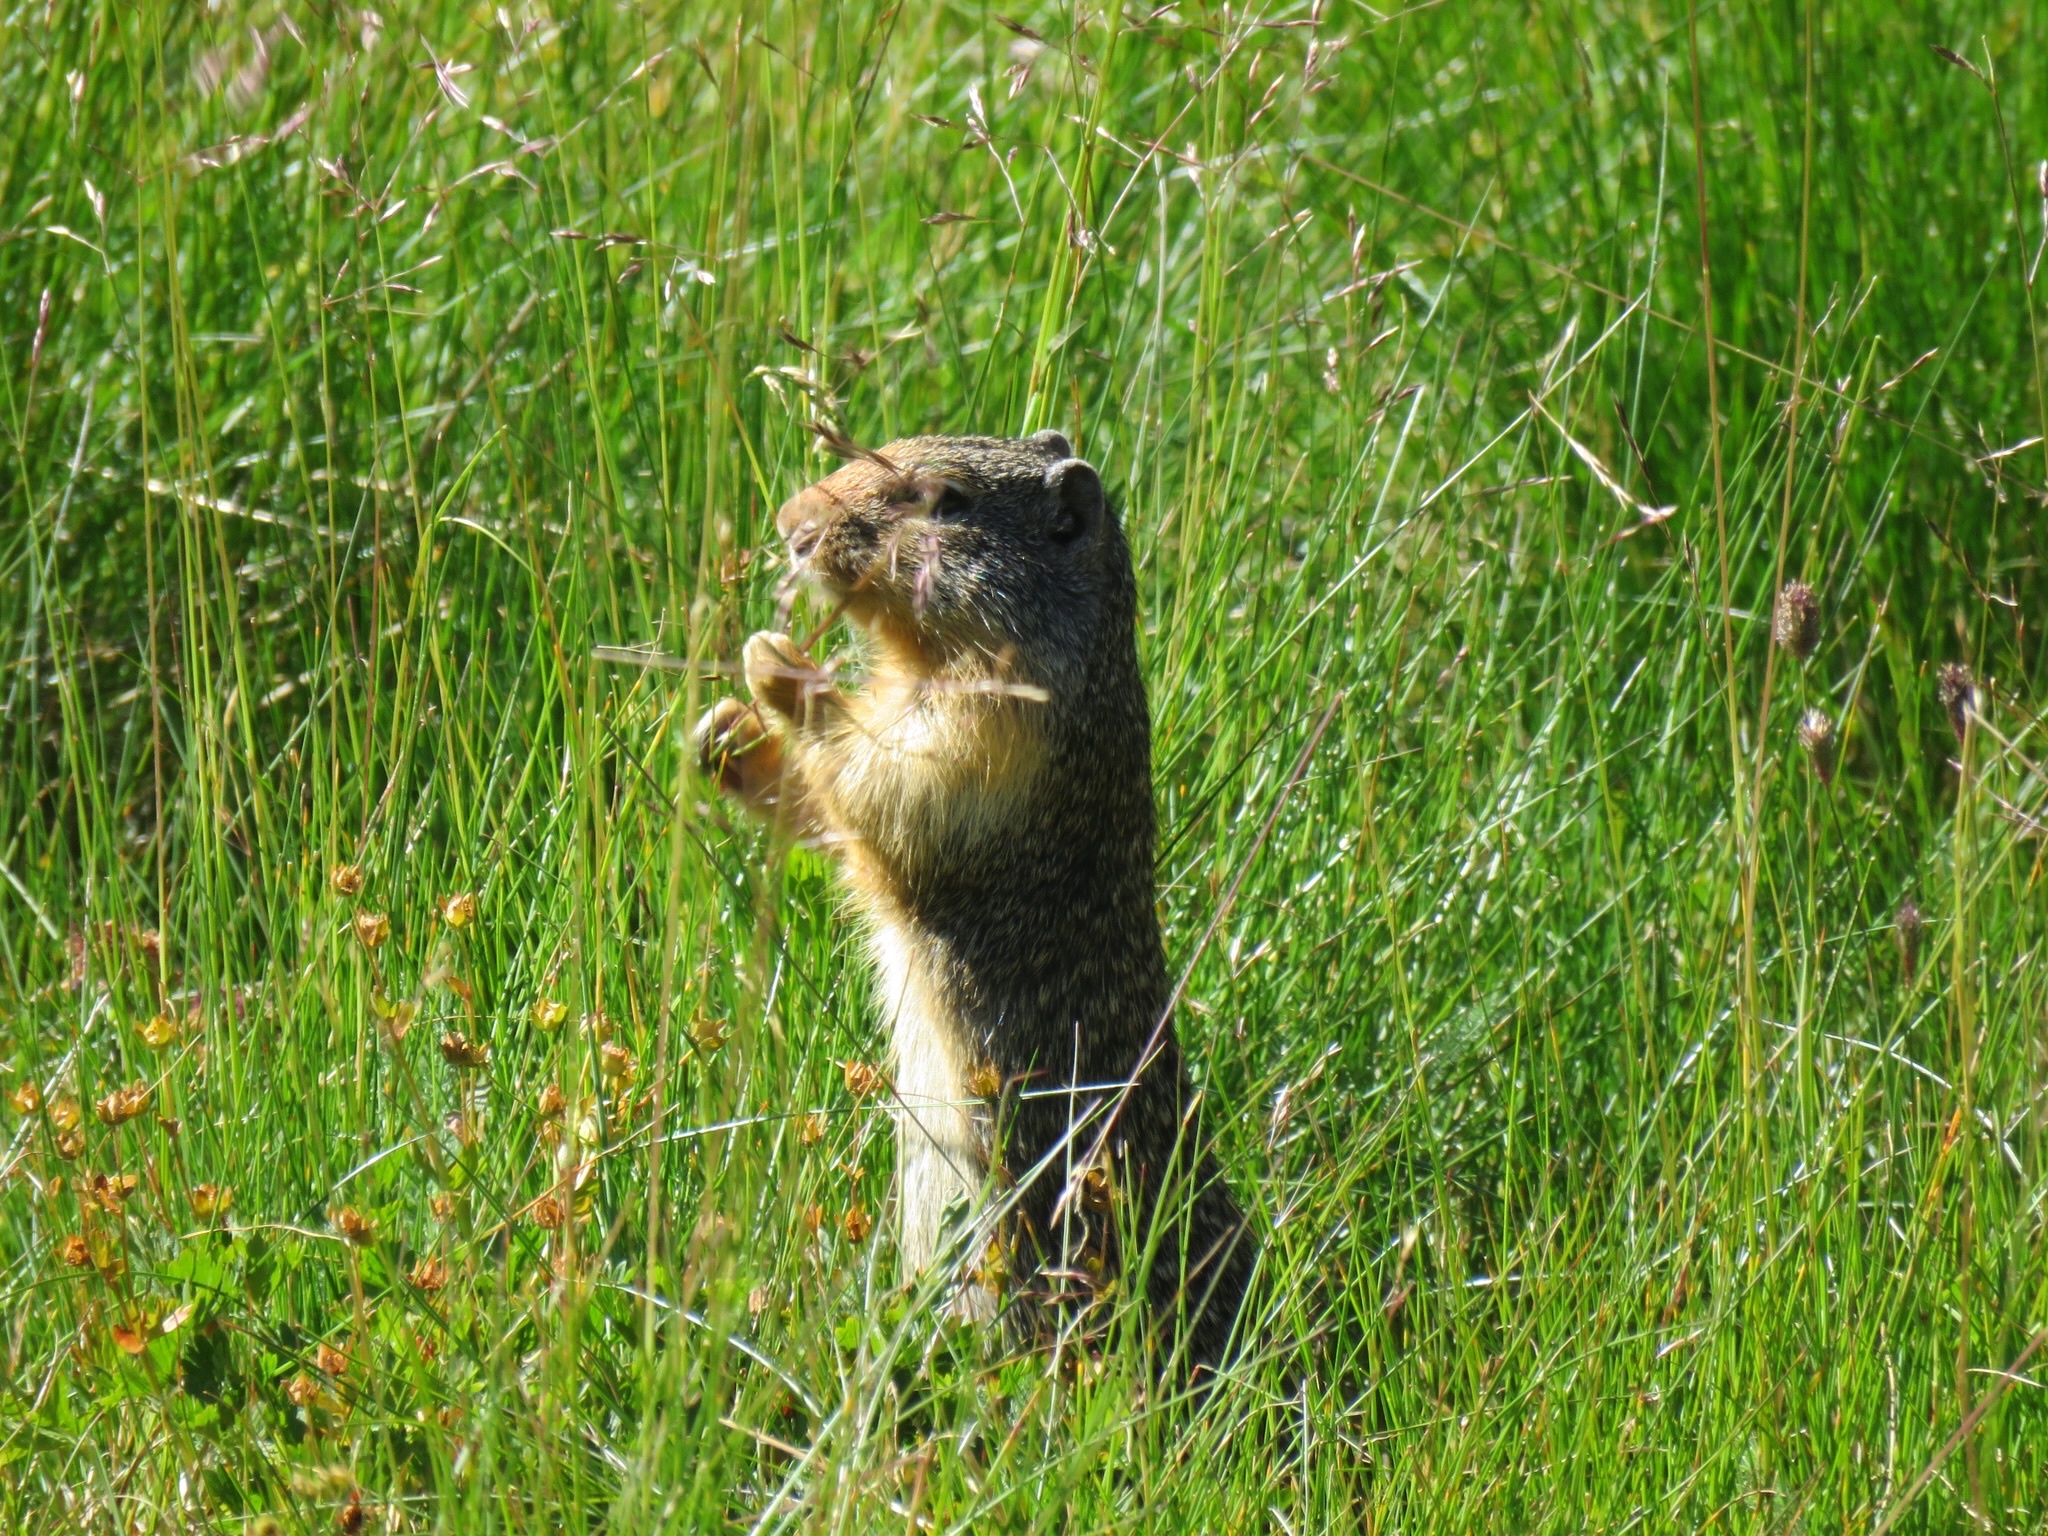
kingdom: Animalia
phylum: Chordata
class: Mammalia
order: Rodentia
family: Sciuridae
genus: Urocitellus
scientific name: Urocitellus columbianus
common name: Columbian ground squirrel
